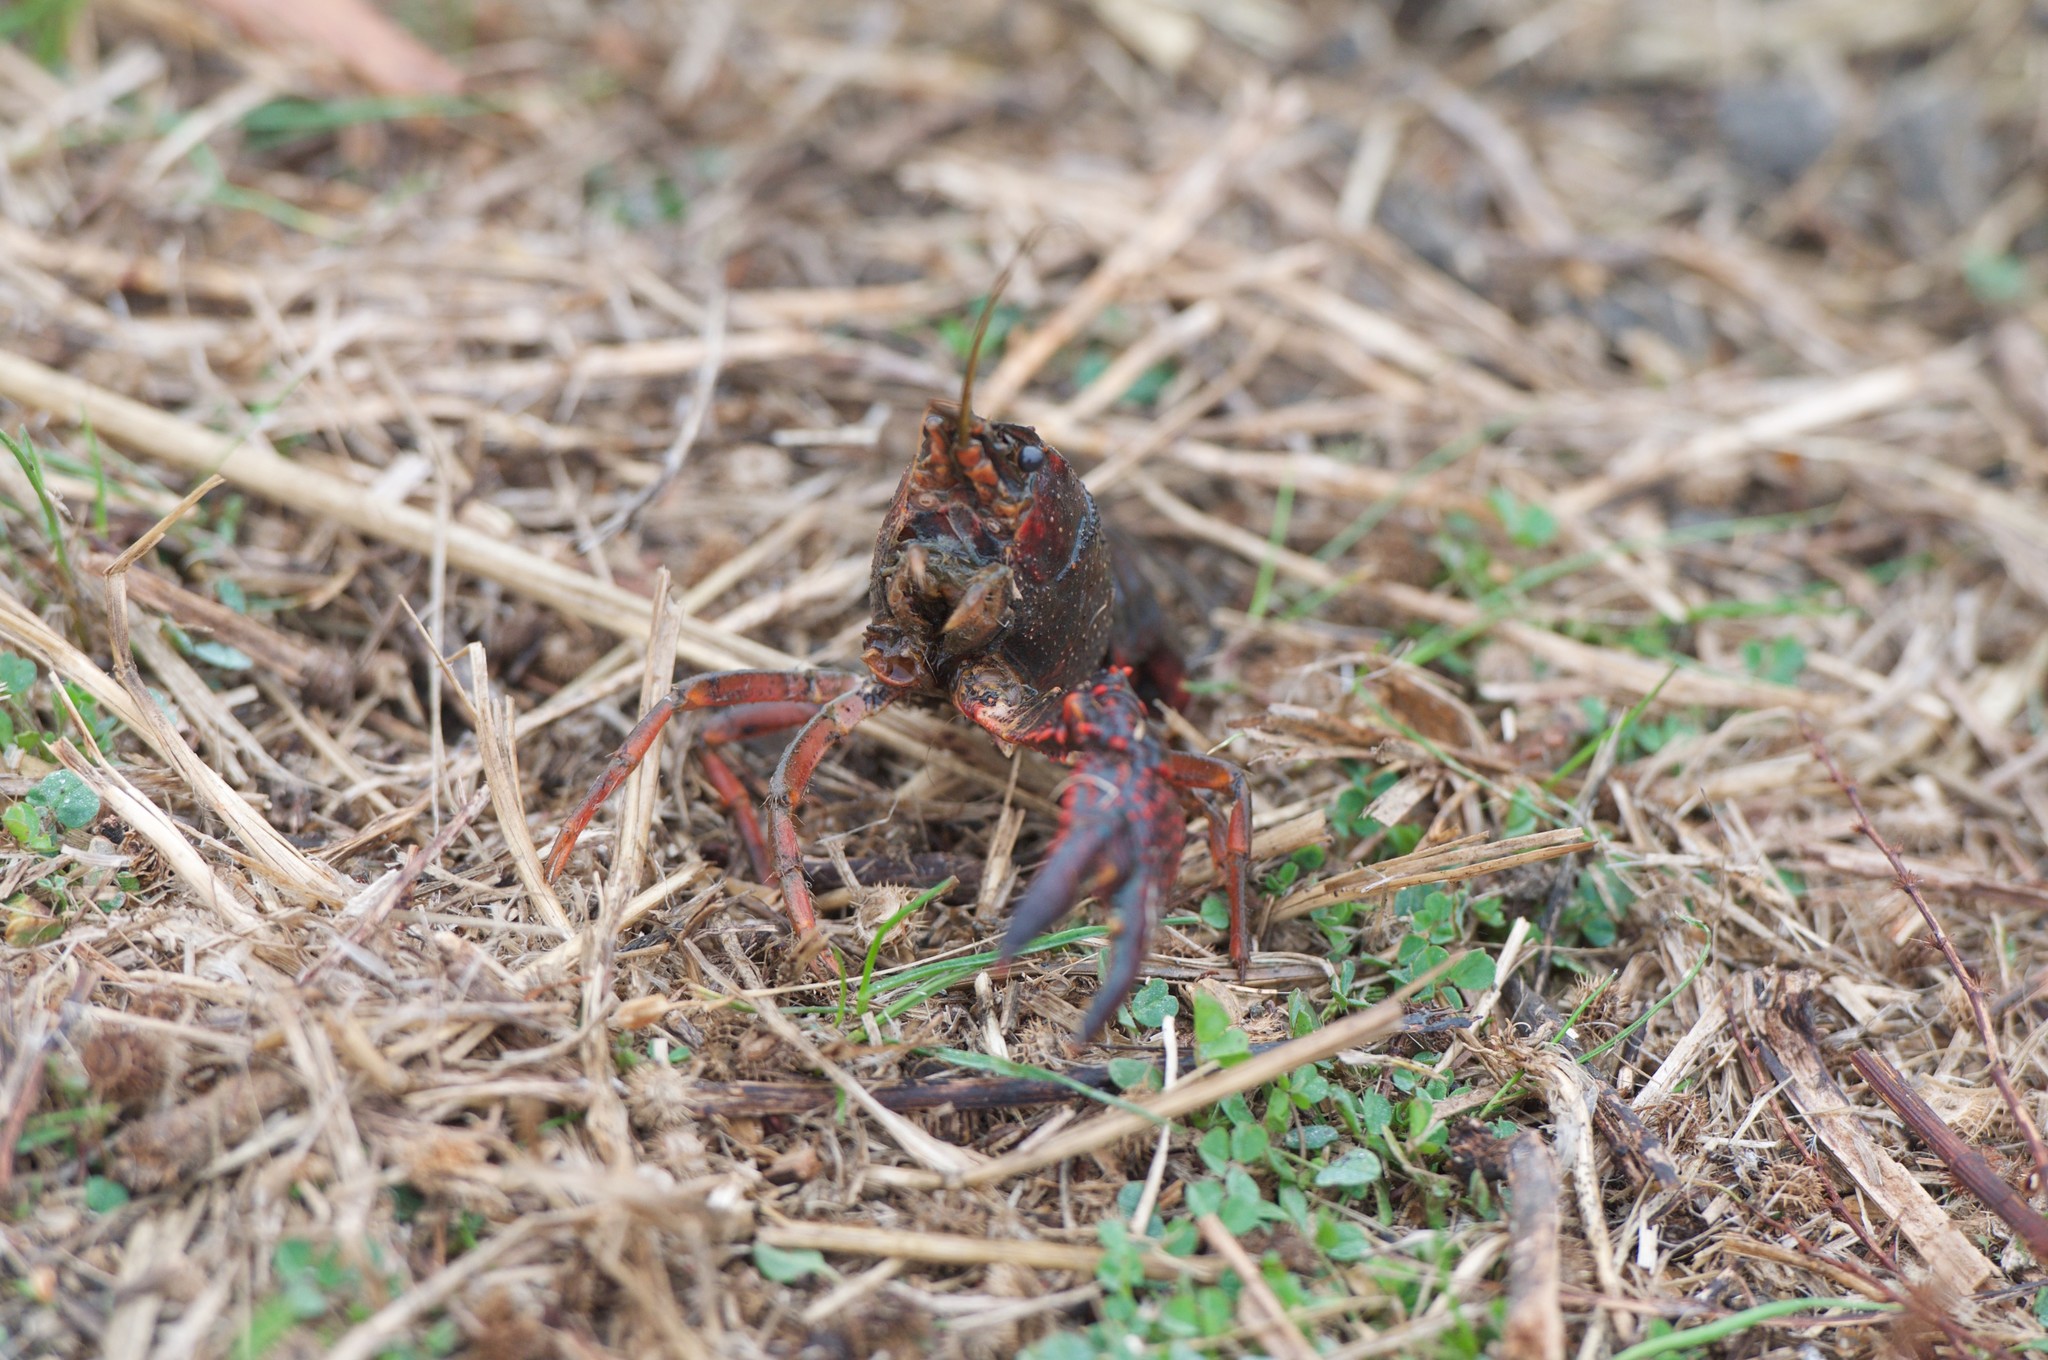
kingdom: Animalia
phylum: Arthropoda
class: Malacostraca
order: Decapoda
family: Cambaridae
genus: Procambarus
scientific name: Procambarus clarkii
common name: Red swamp crayfish
